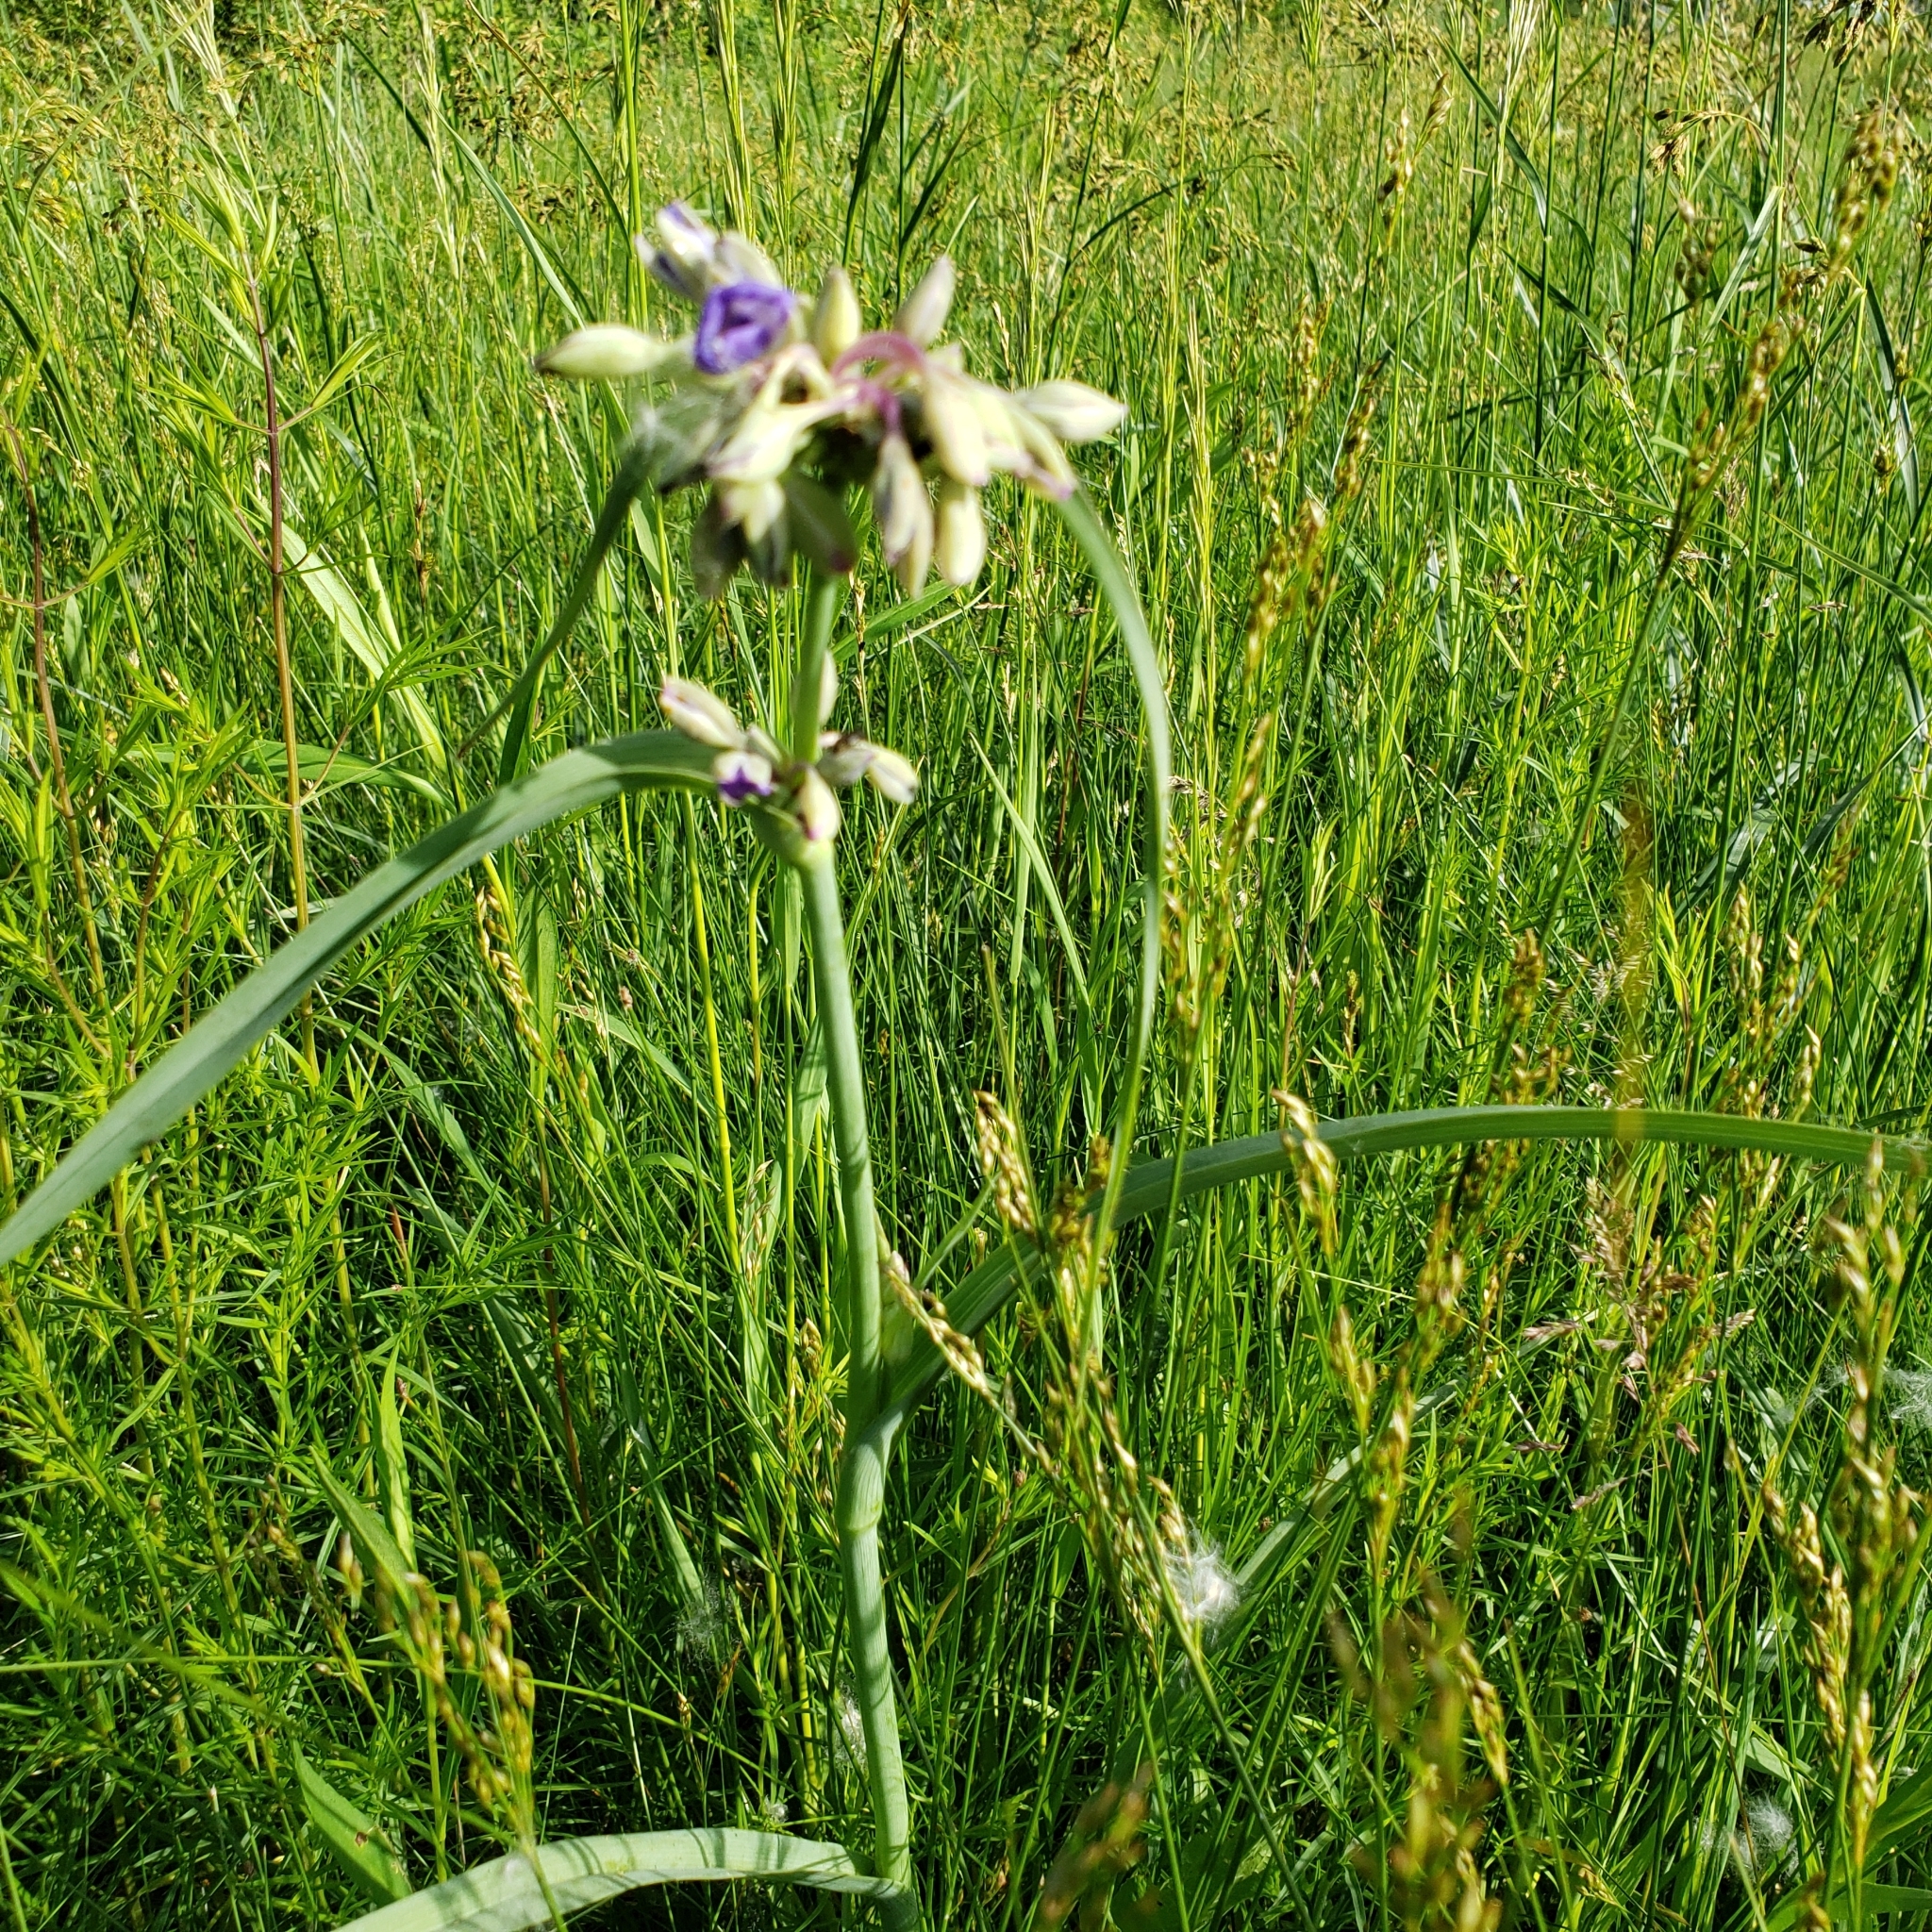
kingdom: Plantae
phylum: Tracheophyta
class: Liliopsida
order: Commelinales
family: Commelinaceae
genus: Tradescantia
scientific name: Tradescantia ohiensis
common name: Ohio spiderwort
